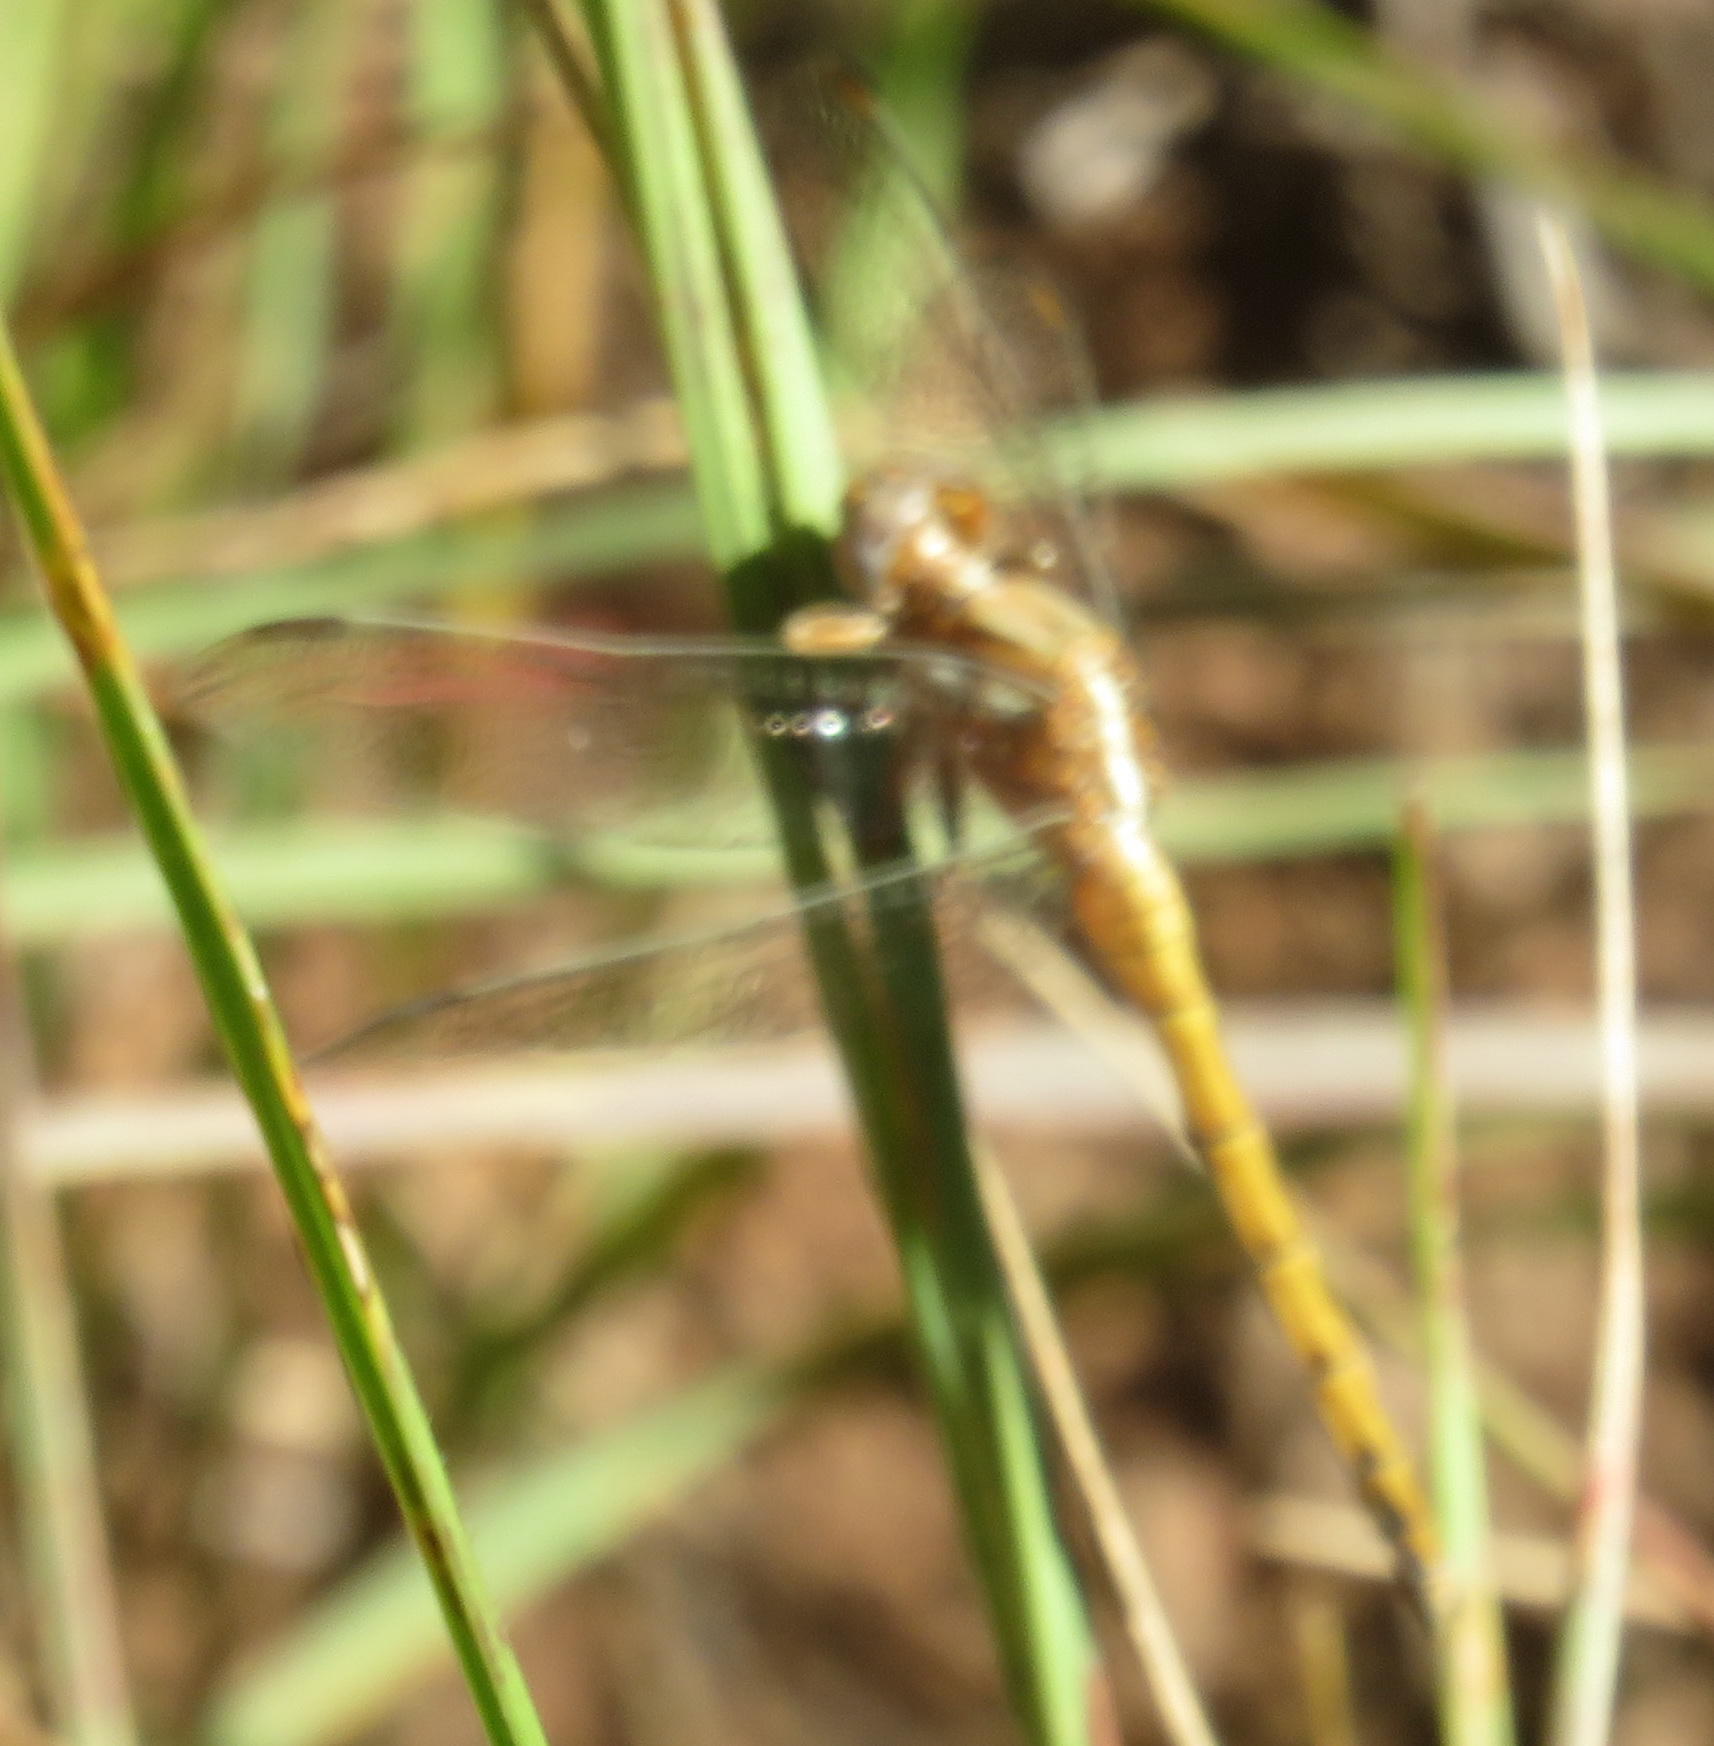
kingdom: Animalia
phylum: Arthropoda
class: Insecta
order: Odonata
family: Libellulidae
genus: Orthetrum
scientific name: Orthetrum chrysostigma
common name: Epaulet skimmer
